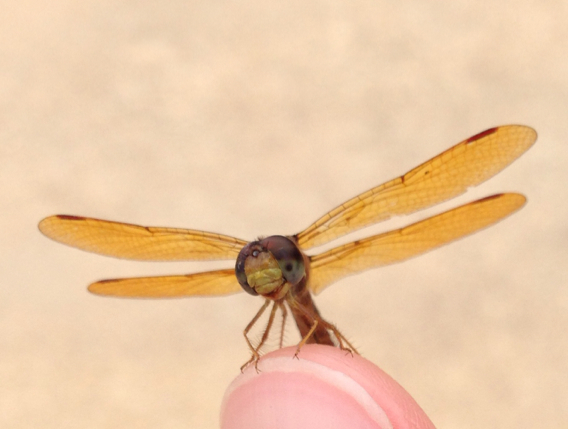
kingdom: Animalia
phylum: Arthropoda
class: Insecta
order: Odonata
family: Libellulidae
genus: Perithemis
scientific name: Perithemis tenera
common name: Eastern amberwing
